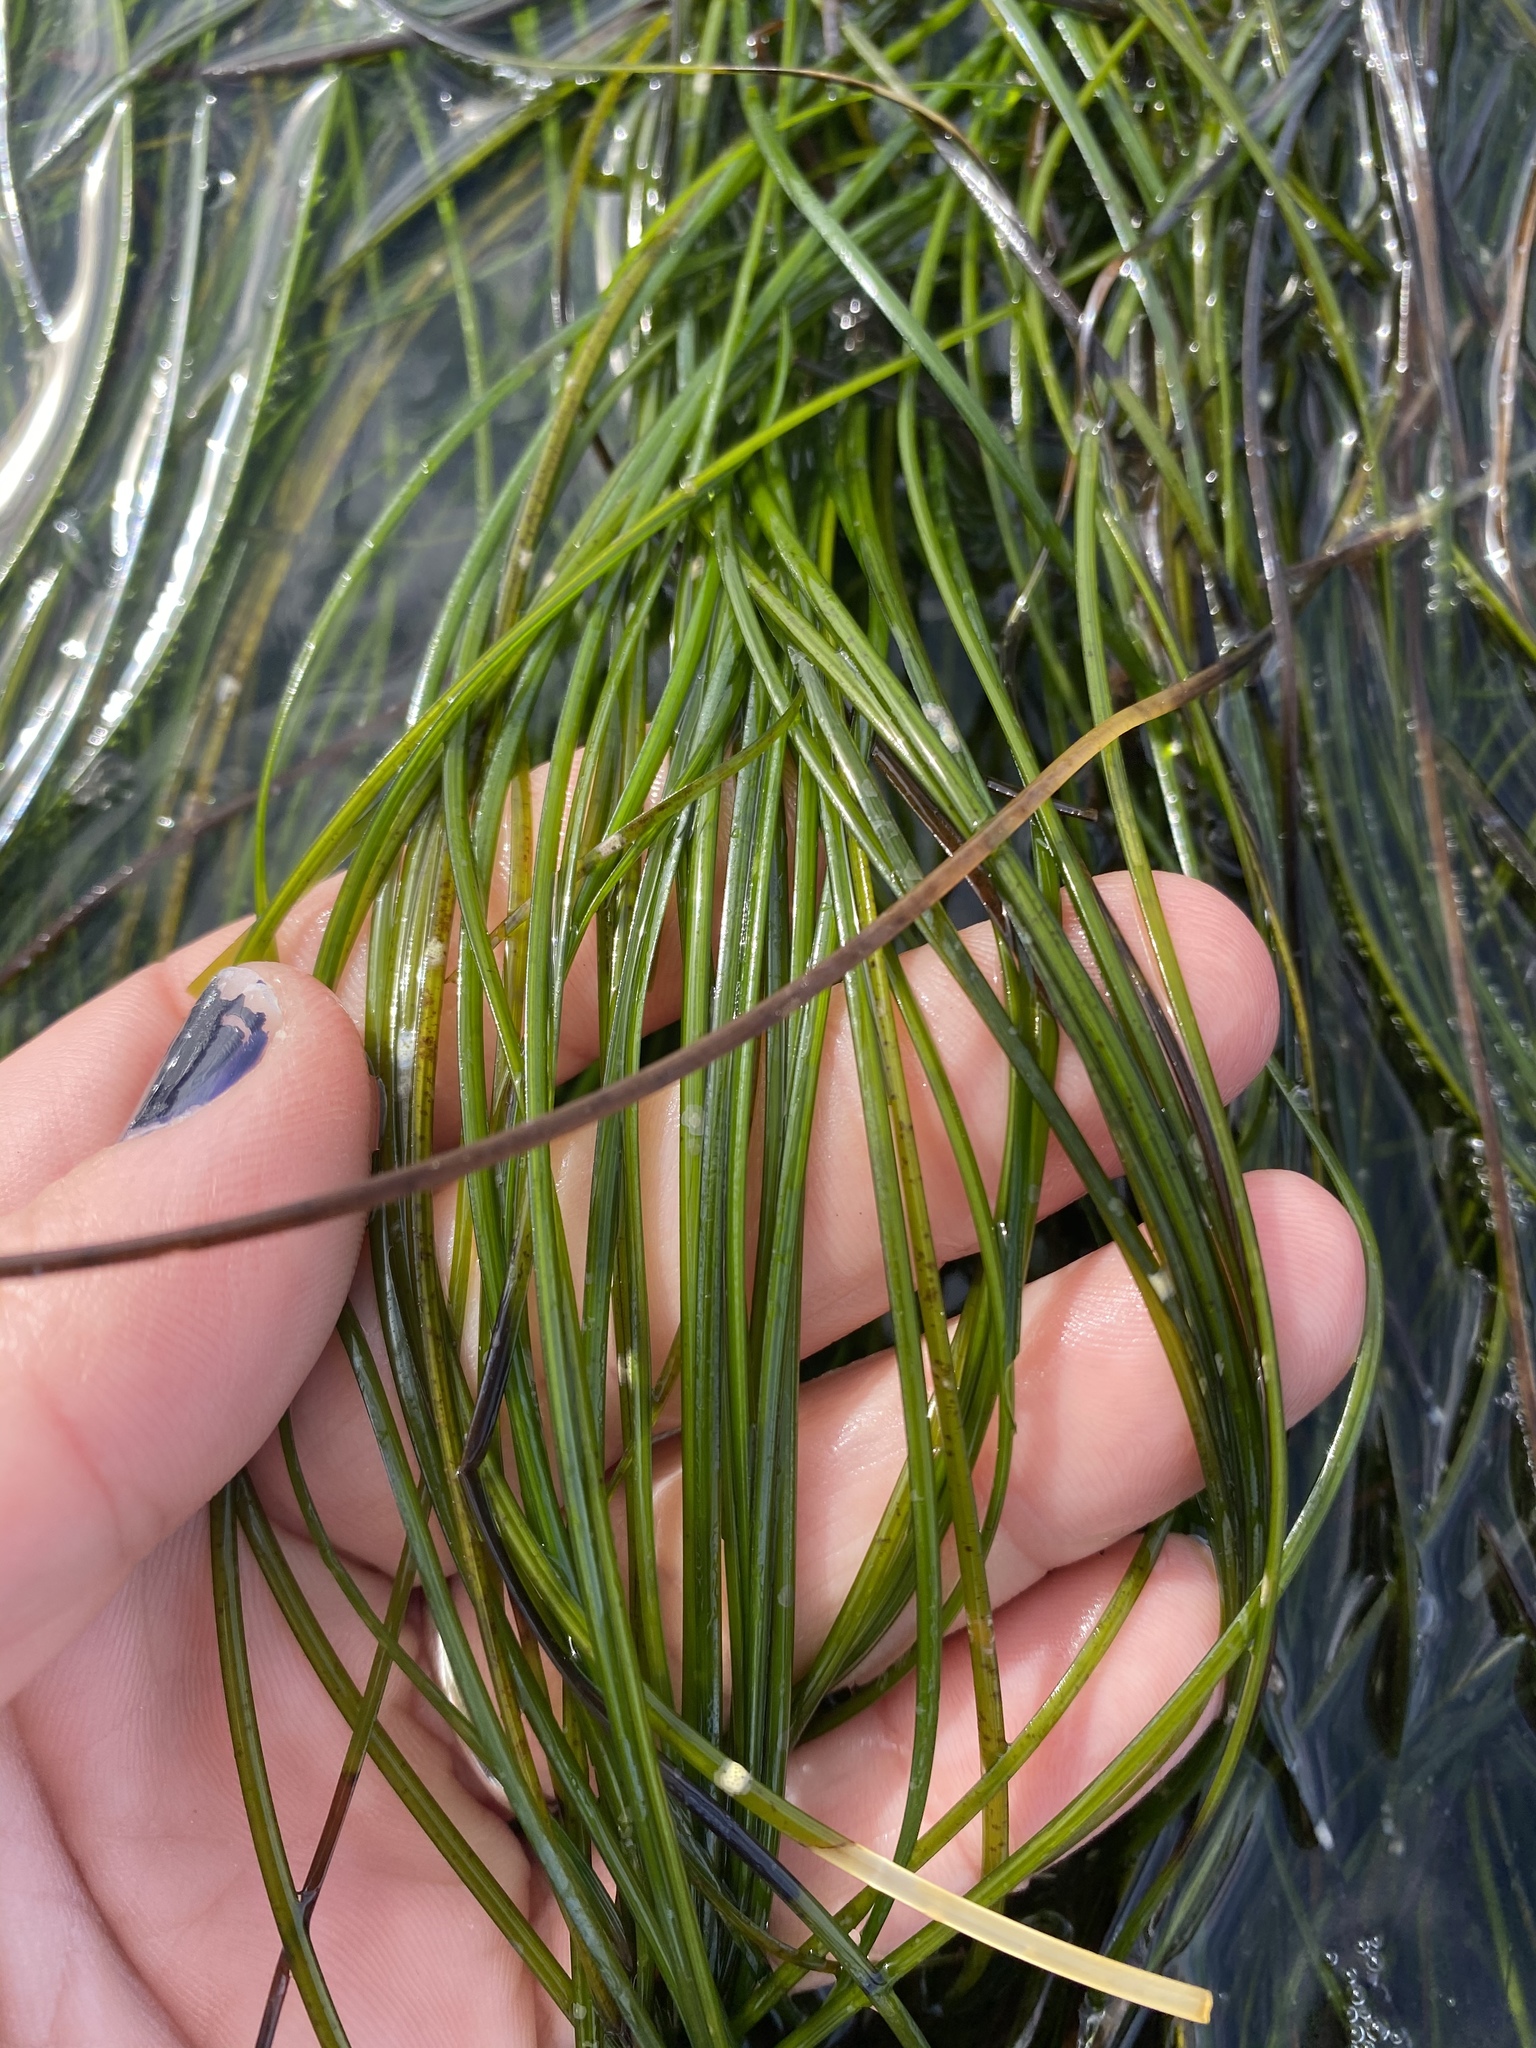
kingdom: Plantae
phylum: Tracheophyta
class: Liliopsida
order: Alismatales
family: Zosteraceae
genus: Phyllospadix
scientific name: Phyllospadix torreyi
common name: Surfgrass
